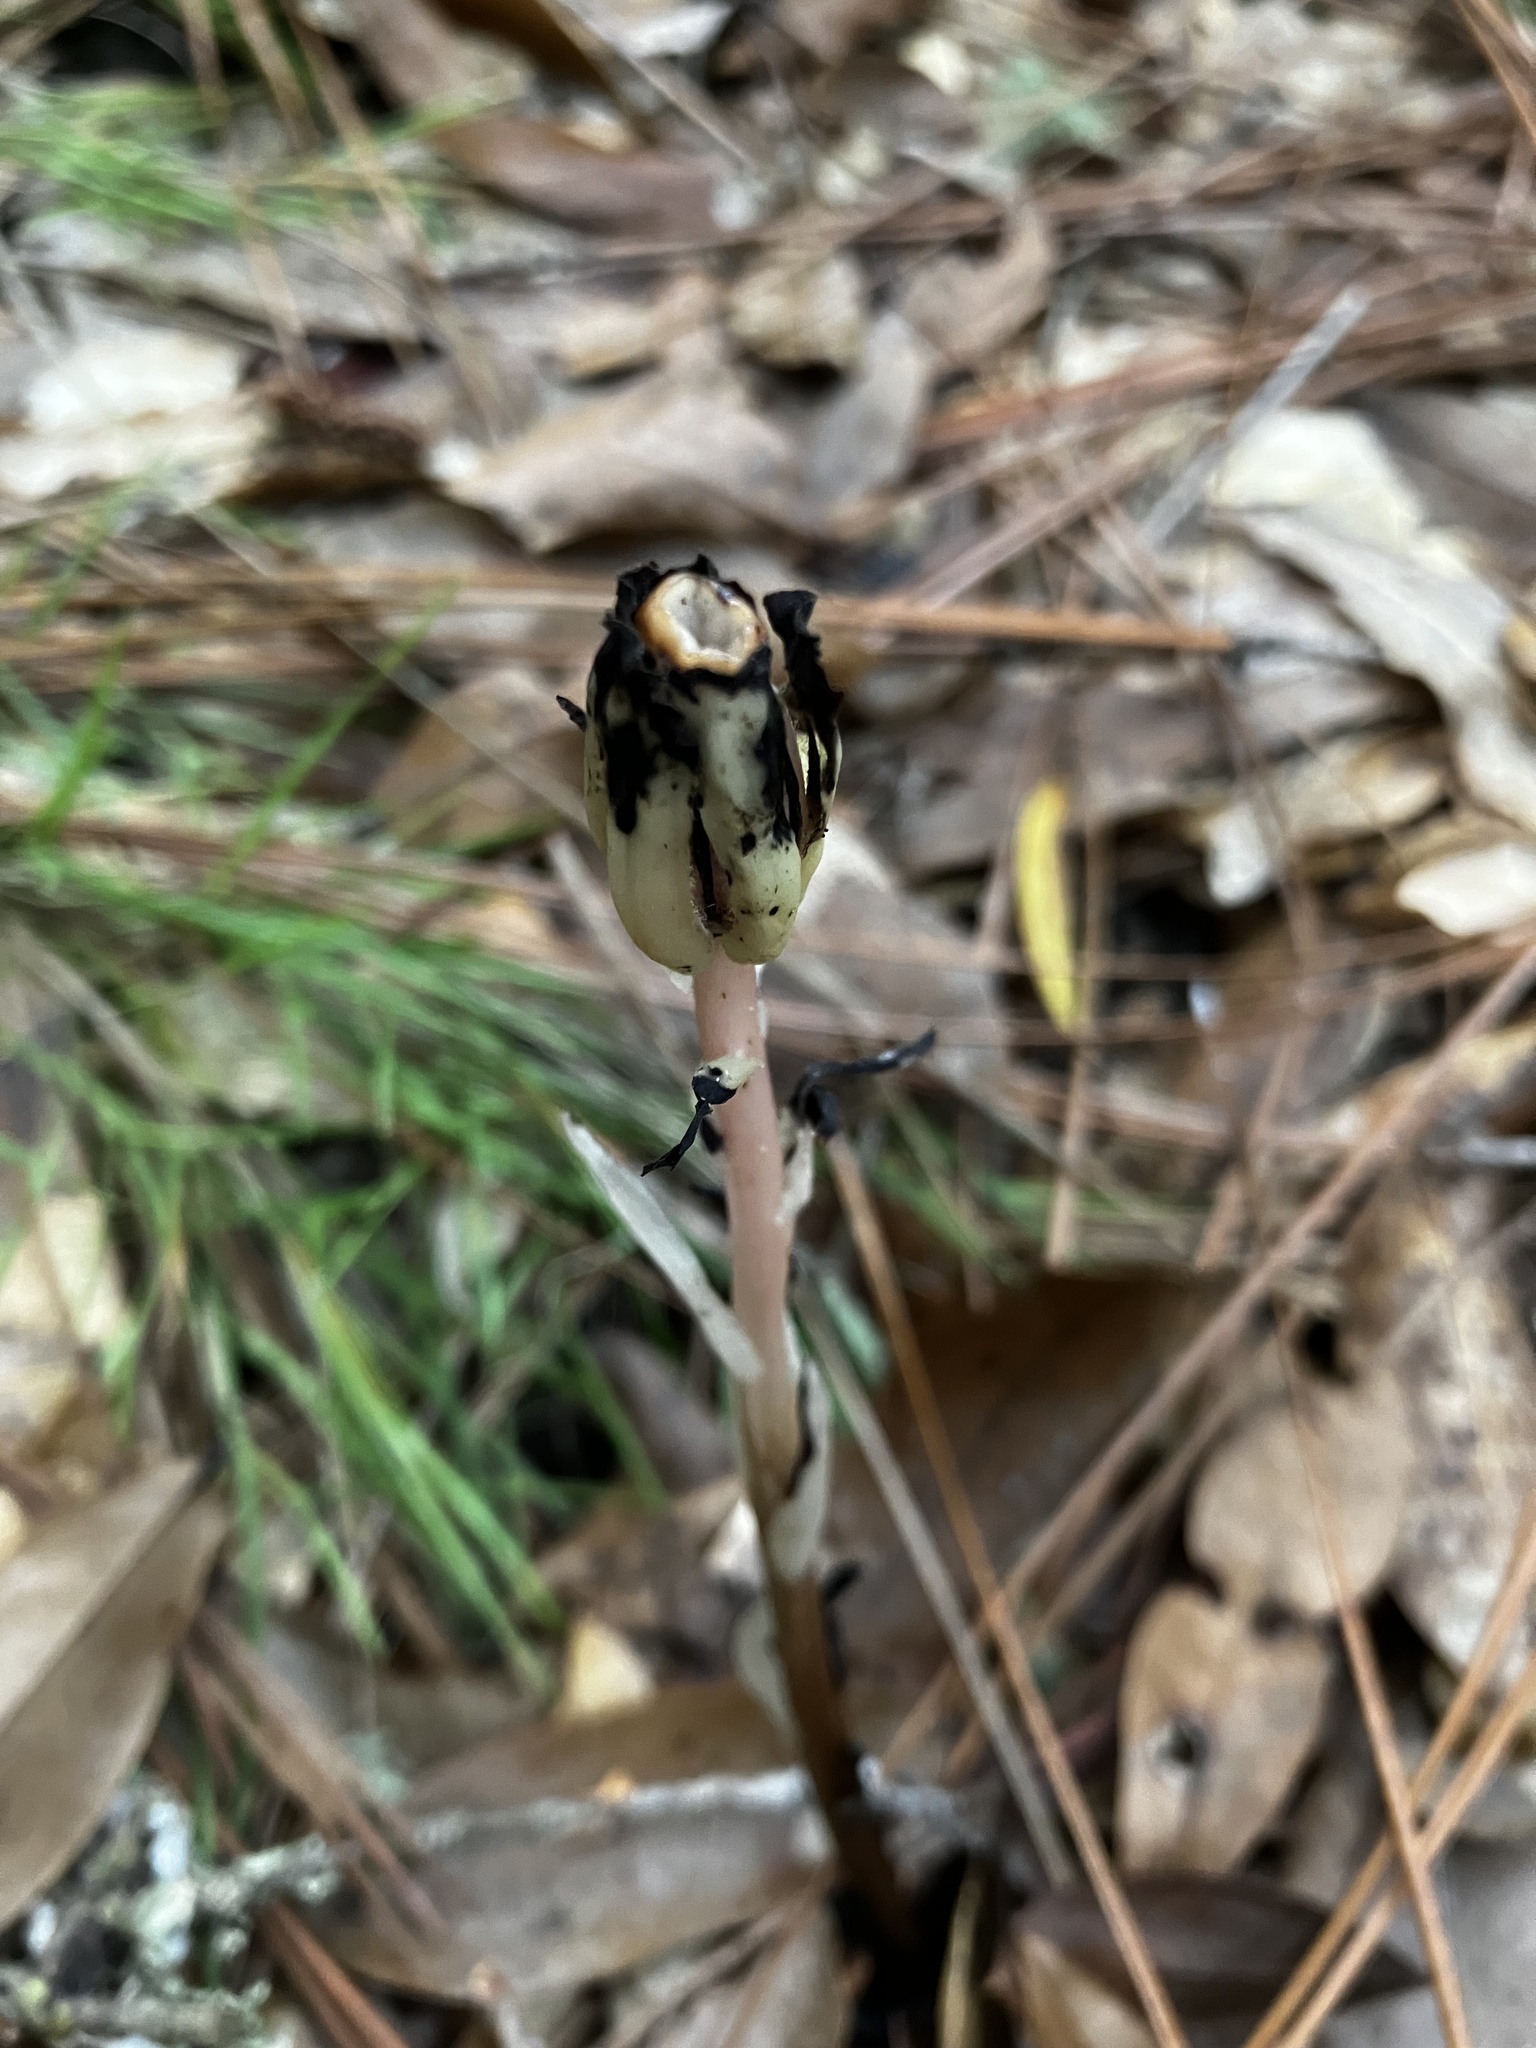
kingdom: Plantae
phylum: Tracheophyta
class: Magnoliopsida
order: Ericales
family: Ericaceae
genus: Monotropa
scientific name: Monotropa uniflora
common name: Convulsion root
